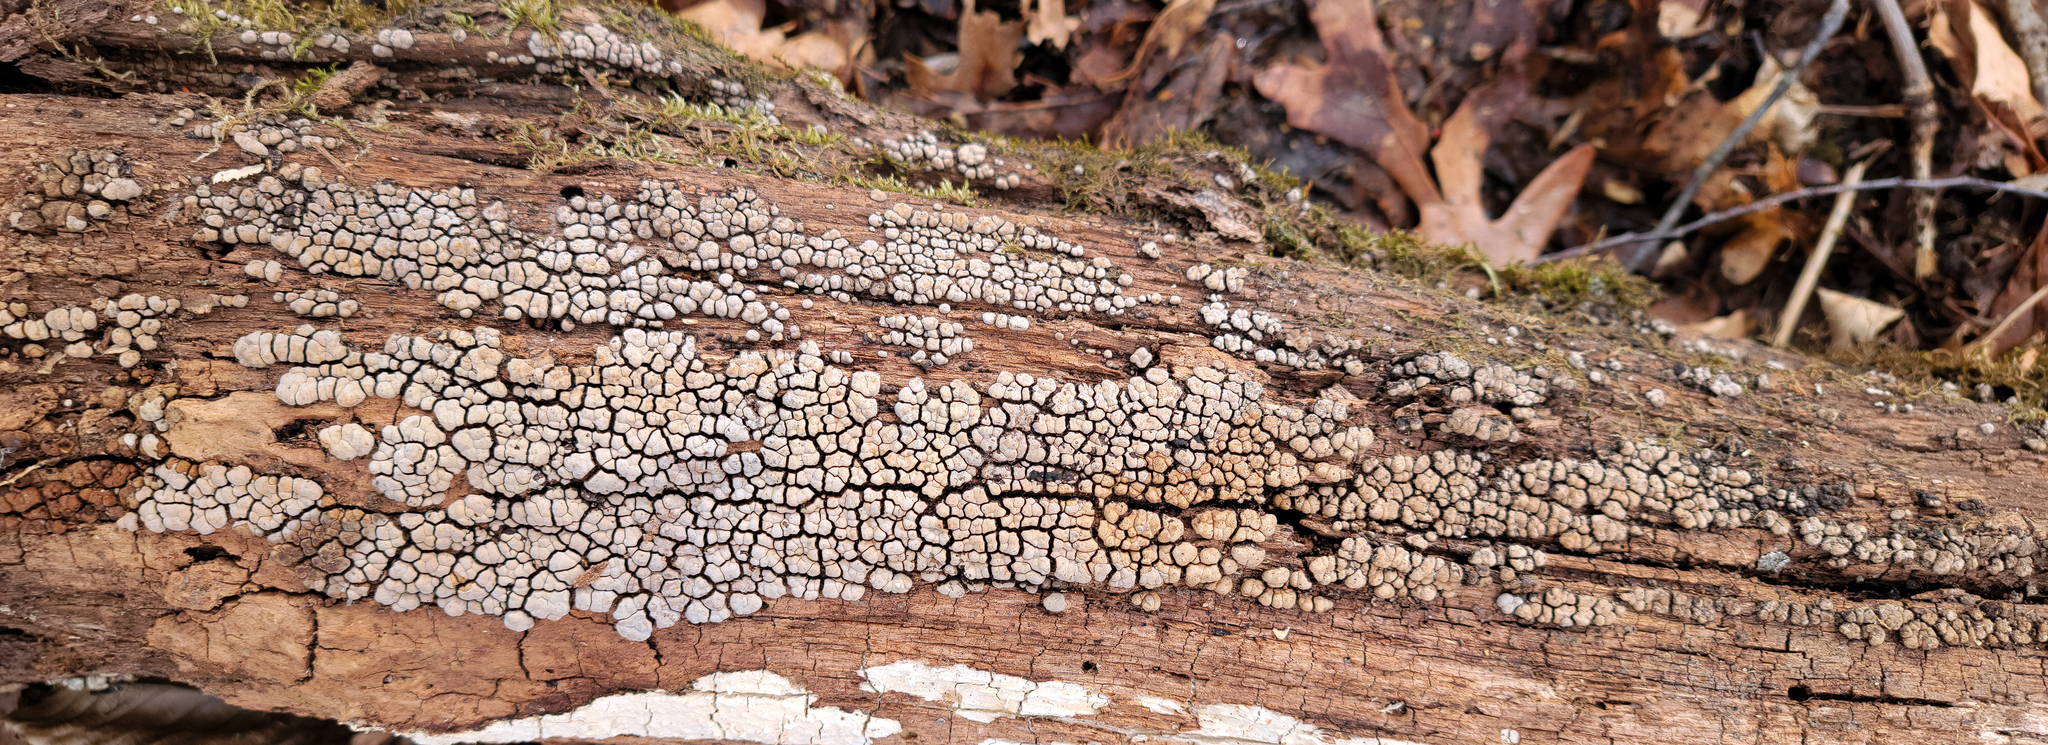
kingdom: Fungi
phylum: Basidiomycota
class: Agaricomycetes
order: Russulales
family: Stereaceae
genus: Xylobolus
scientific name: Xylobolus frustulatus
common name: Ceramic parchment
